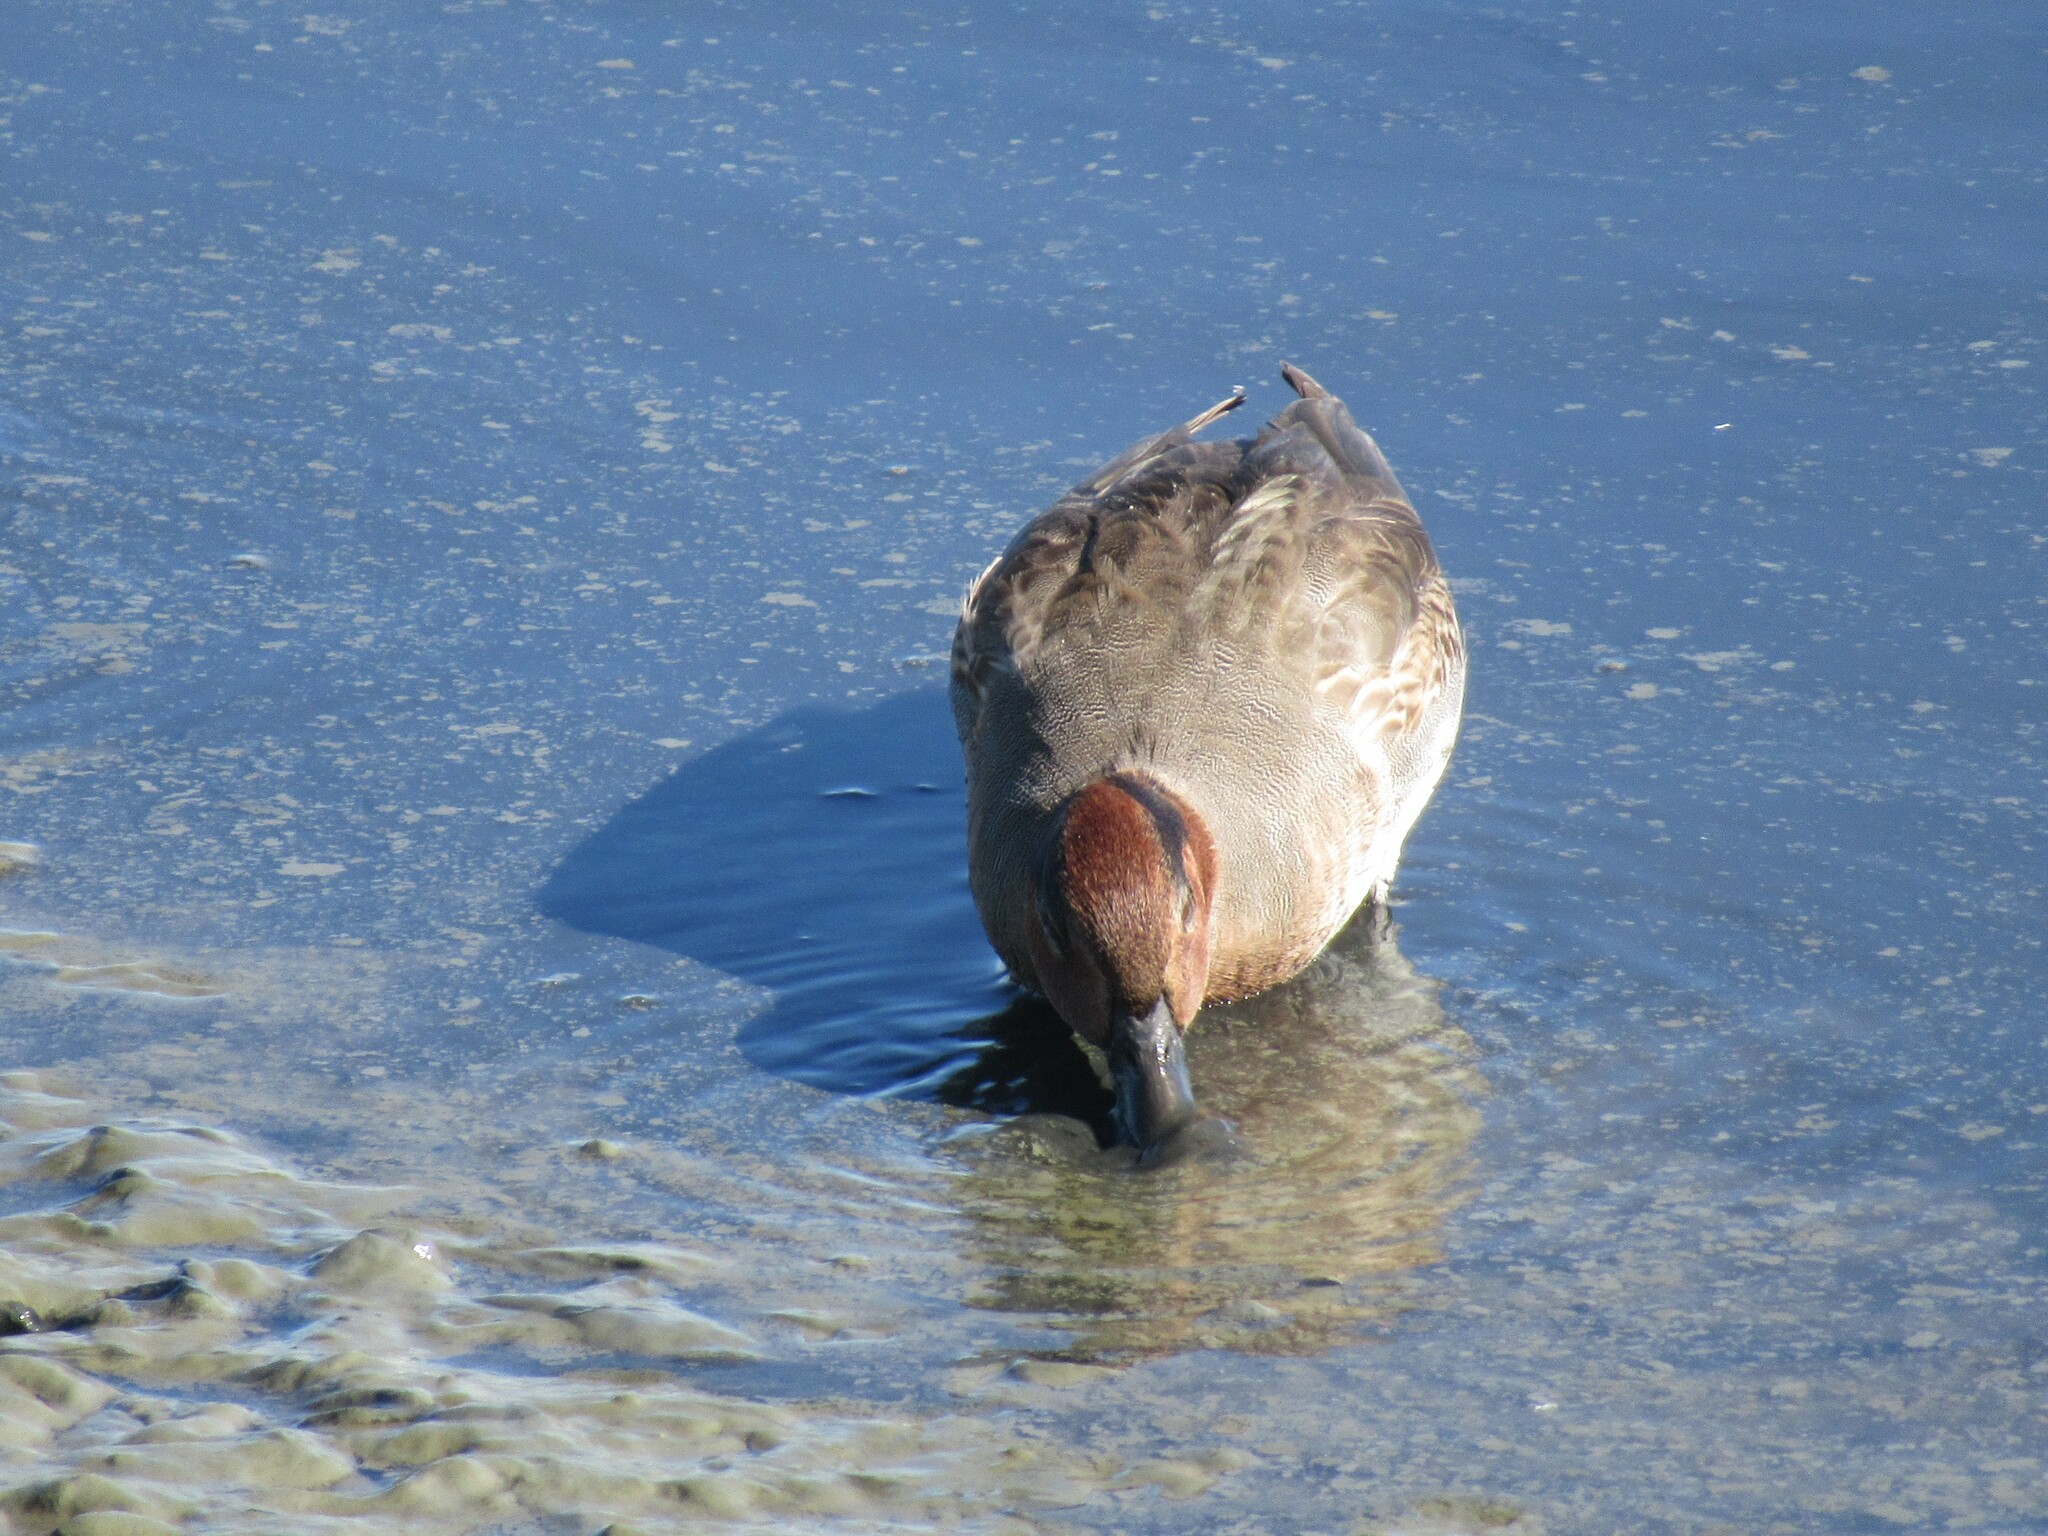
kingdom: Animalia
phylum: Chordata
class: Aves
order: Anseriformes
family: Anatidae
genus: Anas
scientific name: Anas crecca
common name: Eurasian teal
